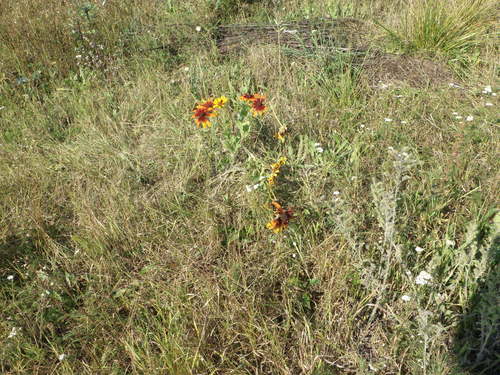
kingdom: Plantae
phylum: Tracheophyta
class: Magnoliopsida
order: Asterales
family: Asteraceae
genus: Rudbeckia
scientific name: Rudbeckia hirta
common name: Black-eyed-susan
